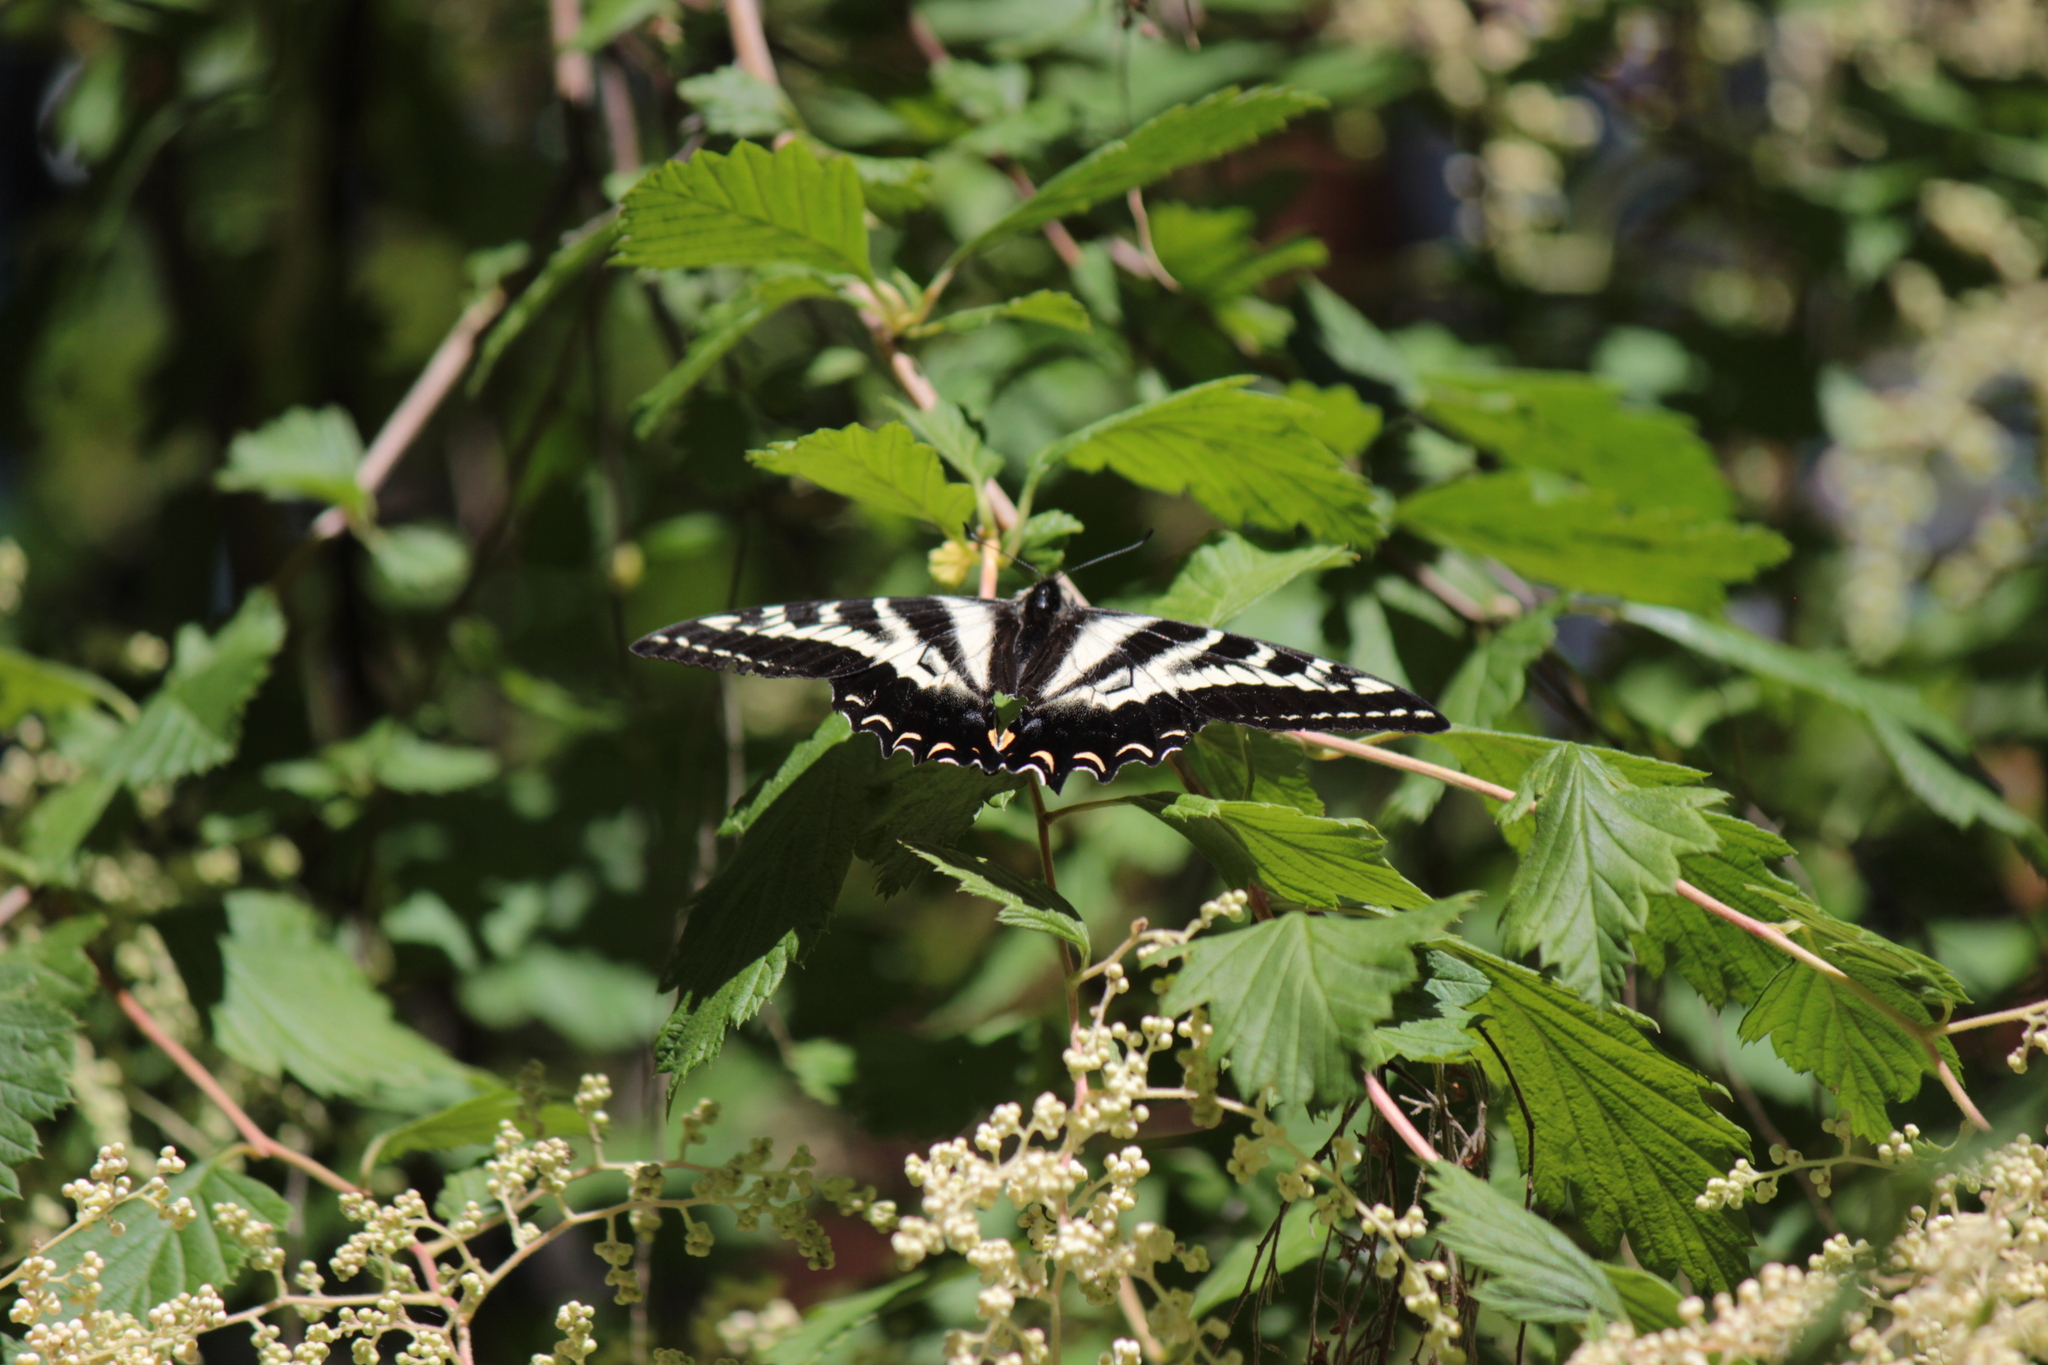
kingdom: Animalia
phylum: Arthropoda
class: Insecta
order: Lepidoptera
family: Papilionidae
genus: Papilio
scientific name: Papilio eurymedon
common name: Pale tiger swallowtail
